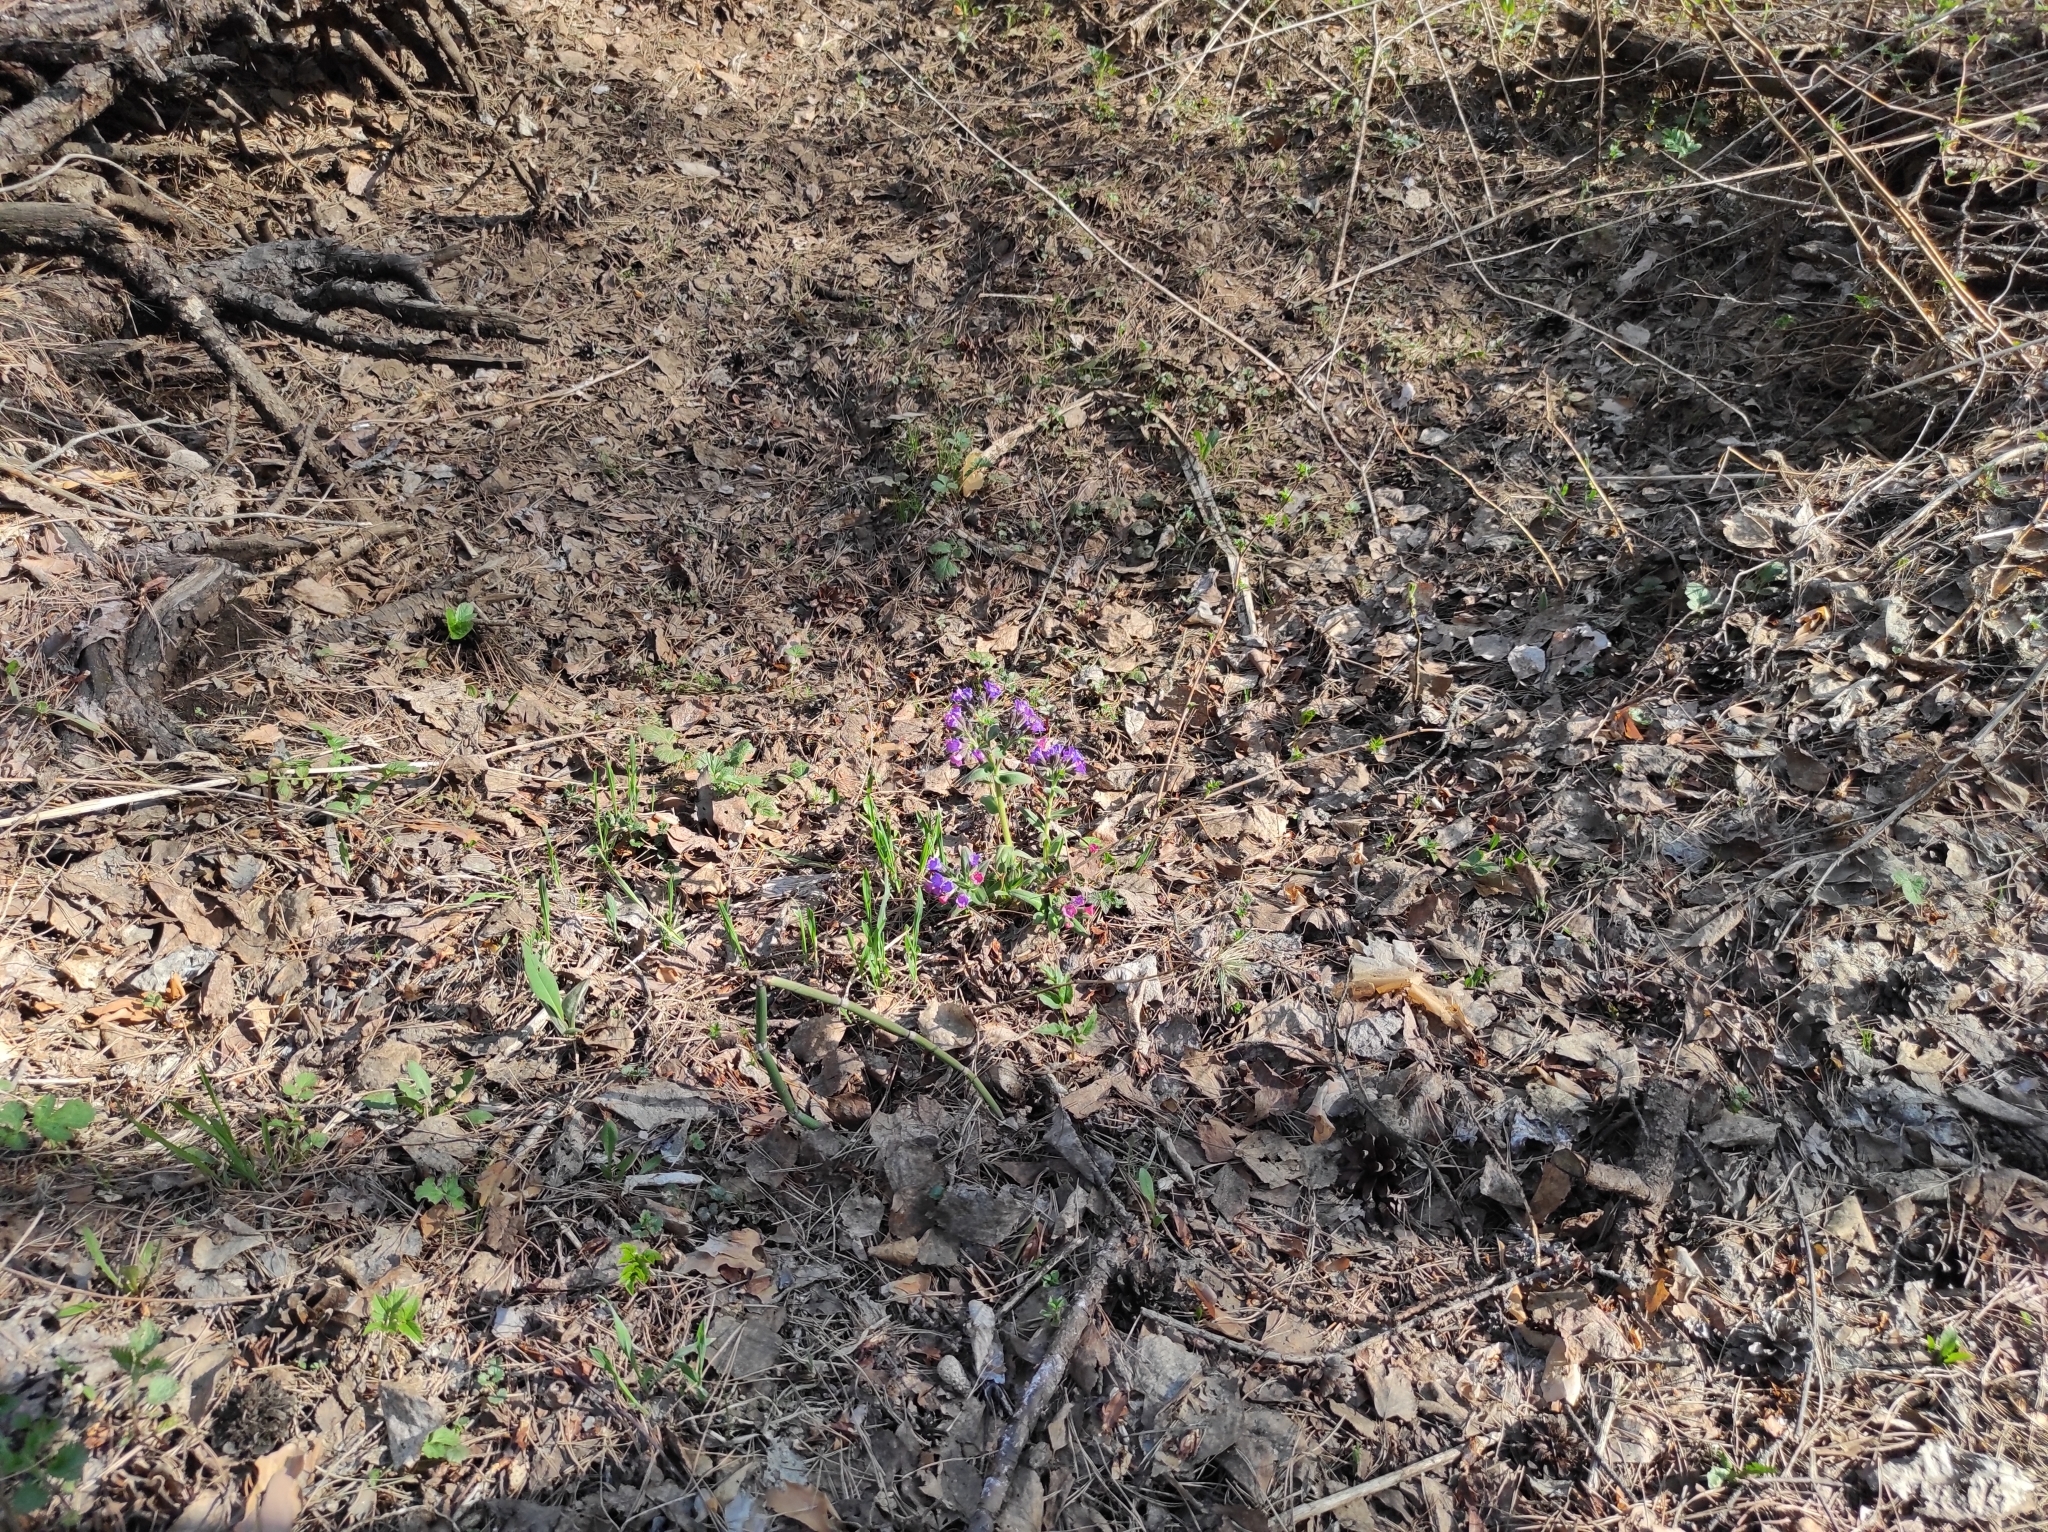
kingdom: Plantae
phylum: Tracheophyta
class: Magnoliopsida
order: Boraginales
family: Boraginaceae
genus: Pulmonaria
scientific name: Pulmonaria mollis
